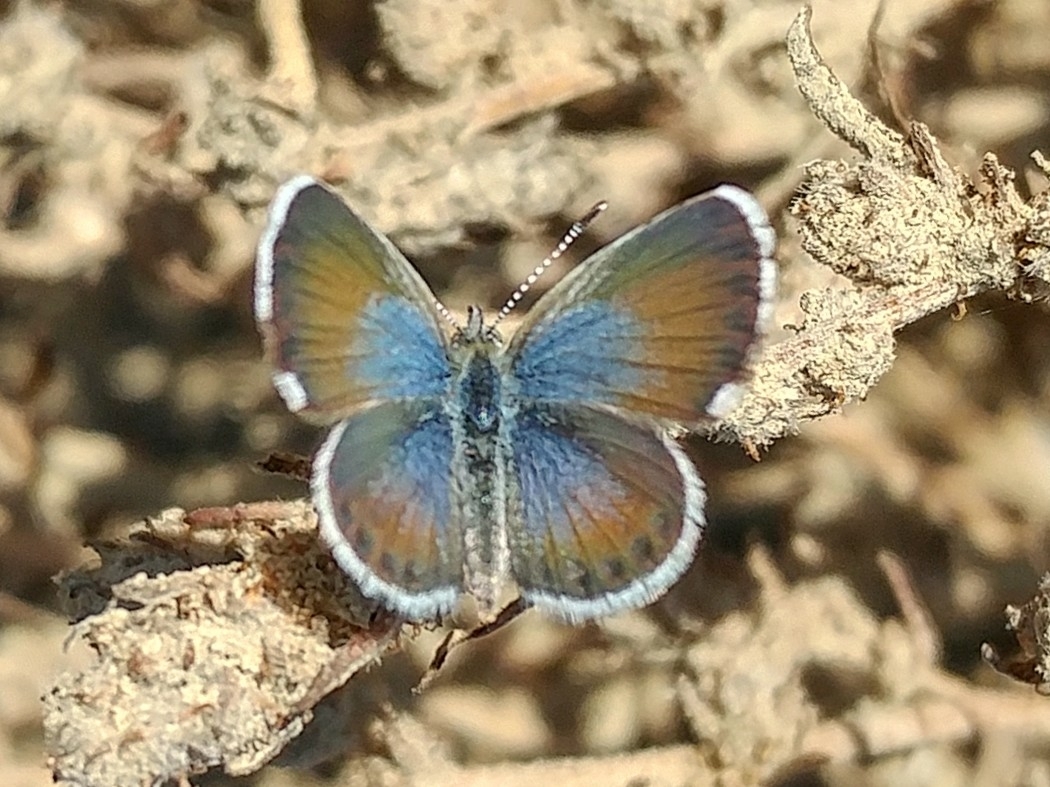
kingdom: Animalia
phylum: Arthropoda
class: Insecta
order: Lepidoptera
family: Lycaenidae
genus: Brephidium
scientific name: Brephidium exilis
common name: Pygmy blue
